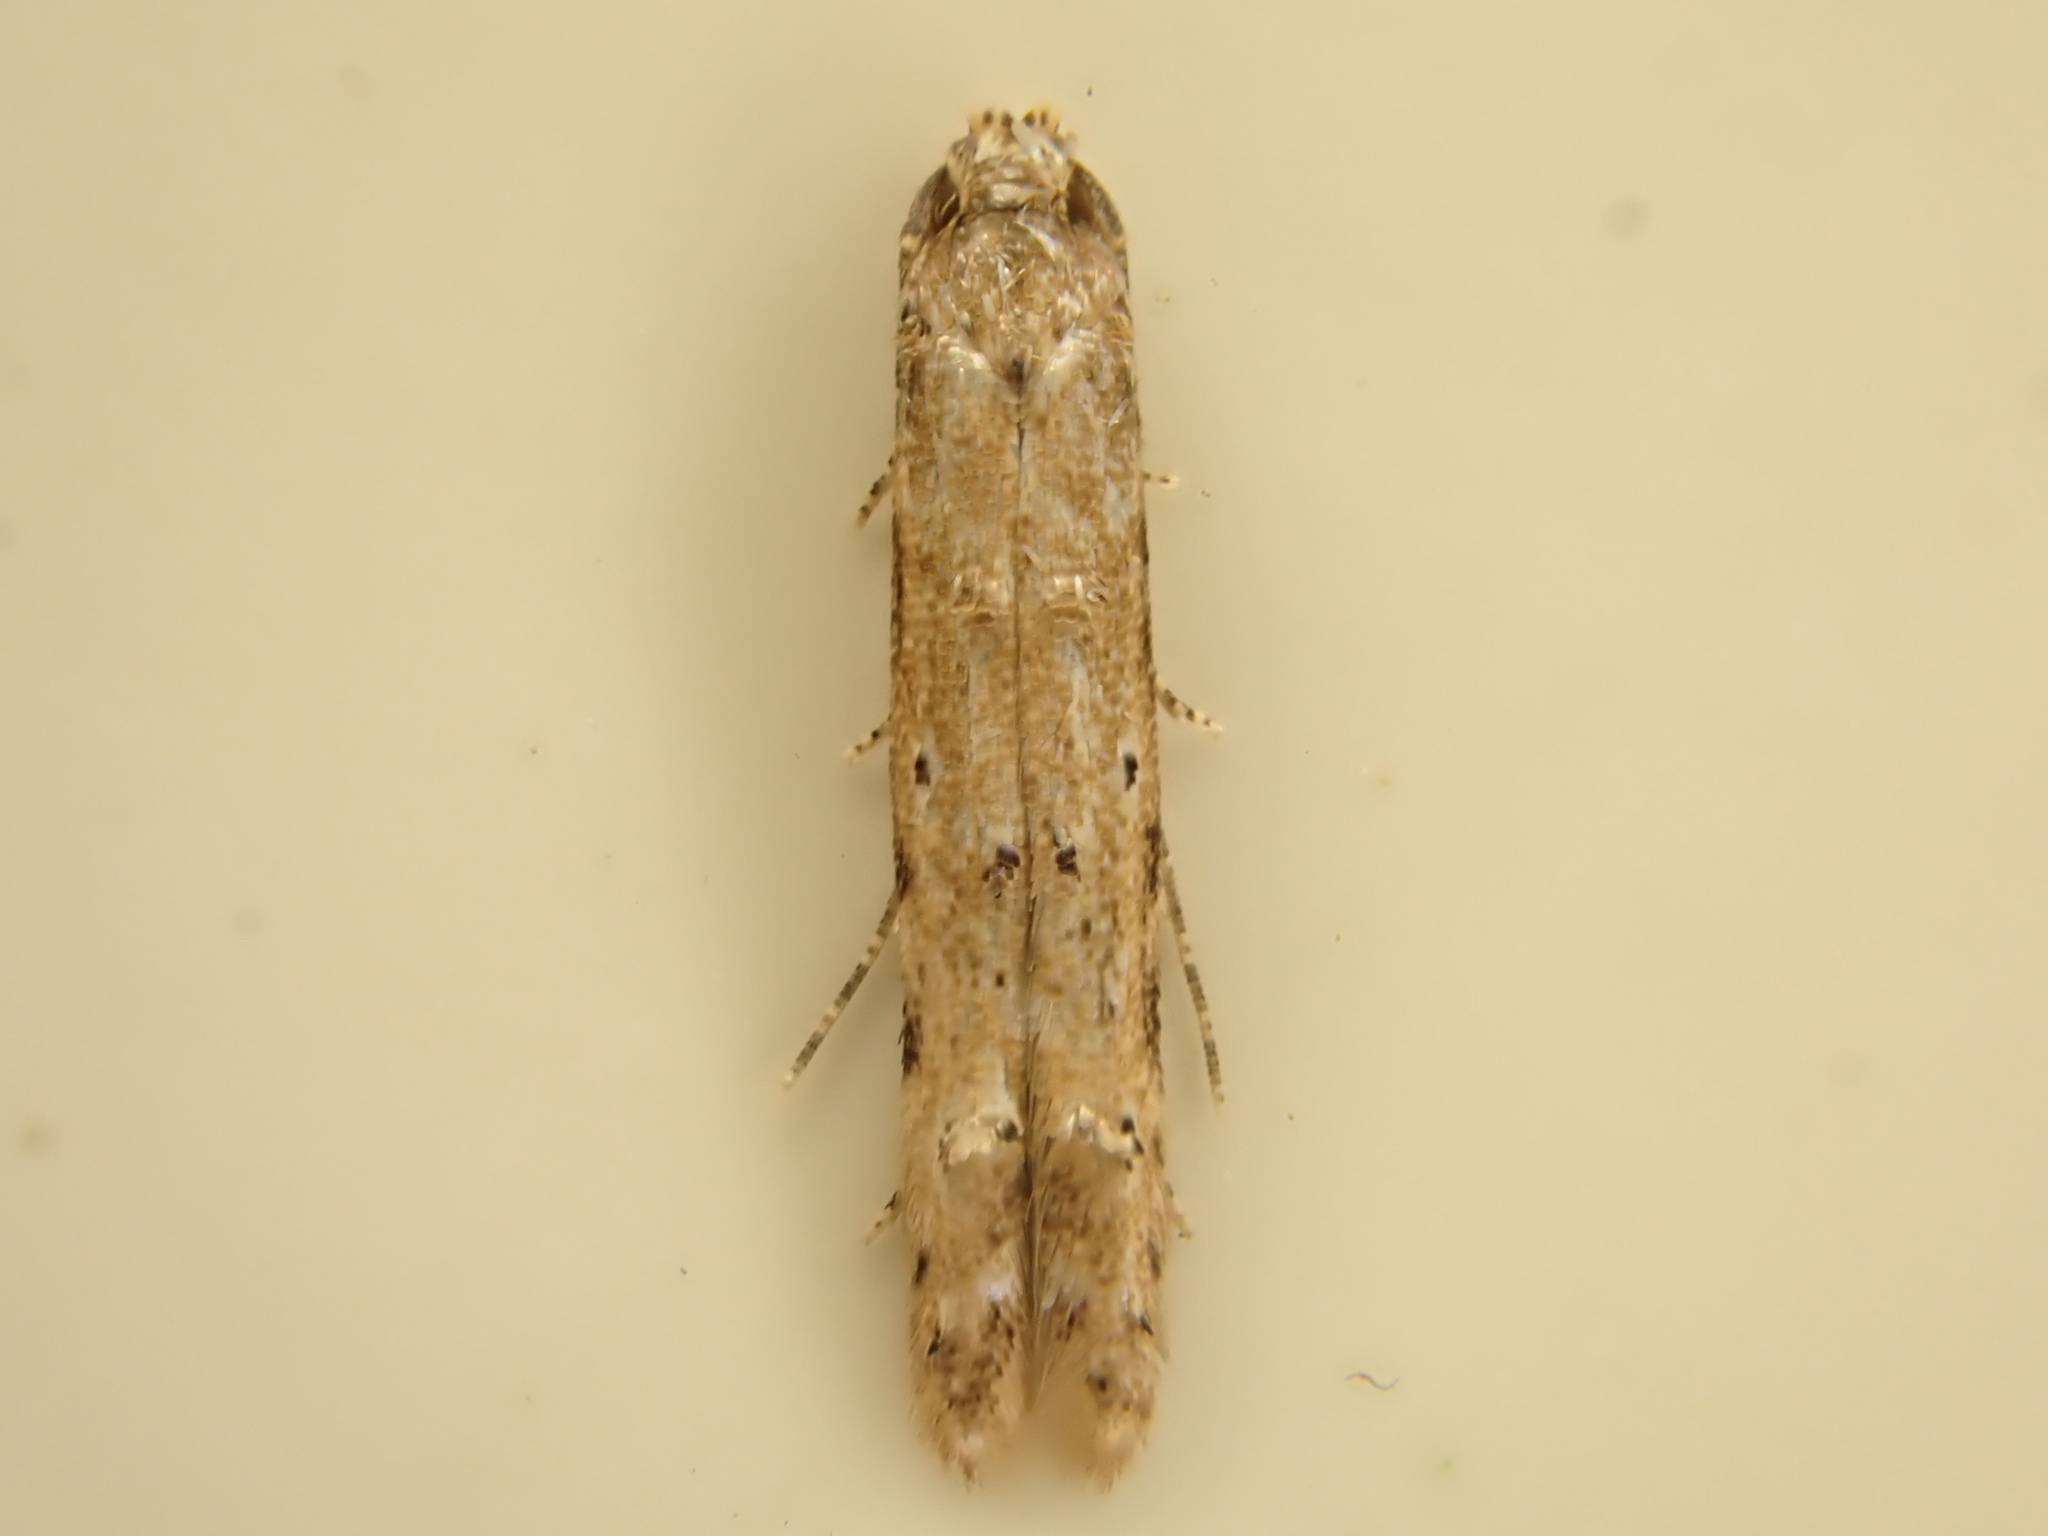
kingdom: Animalia
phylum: Arthropoda
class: Insecta
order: Lepidoptera
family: Elachistidae
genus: Microcolona
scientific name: Microcolona limodes
